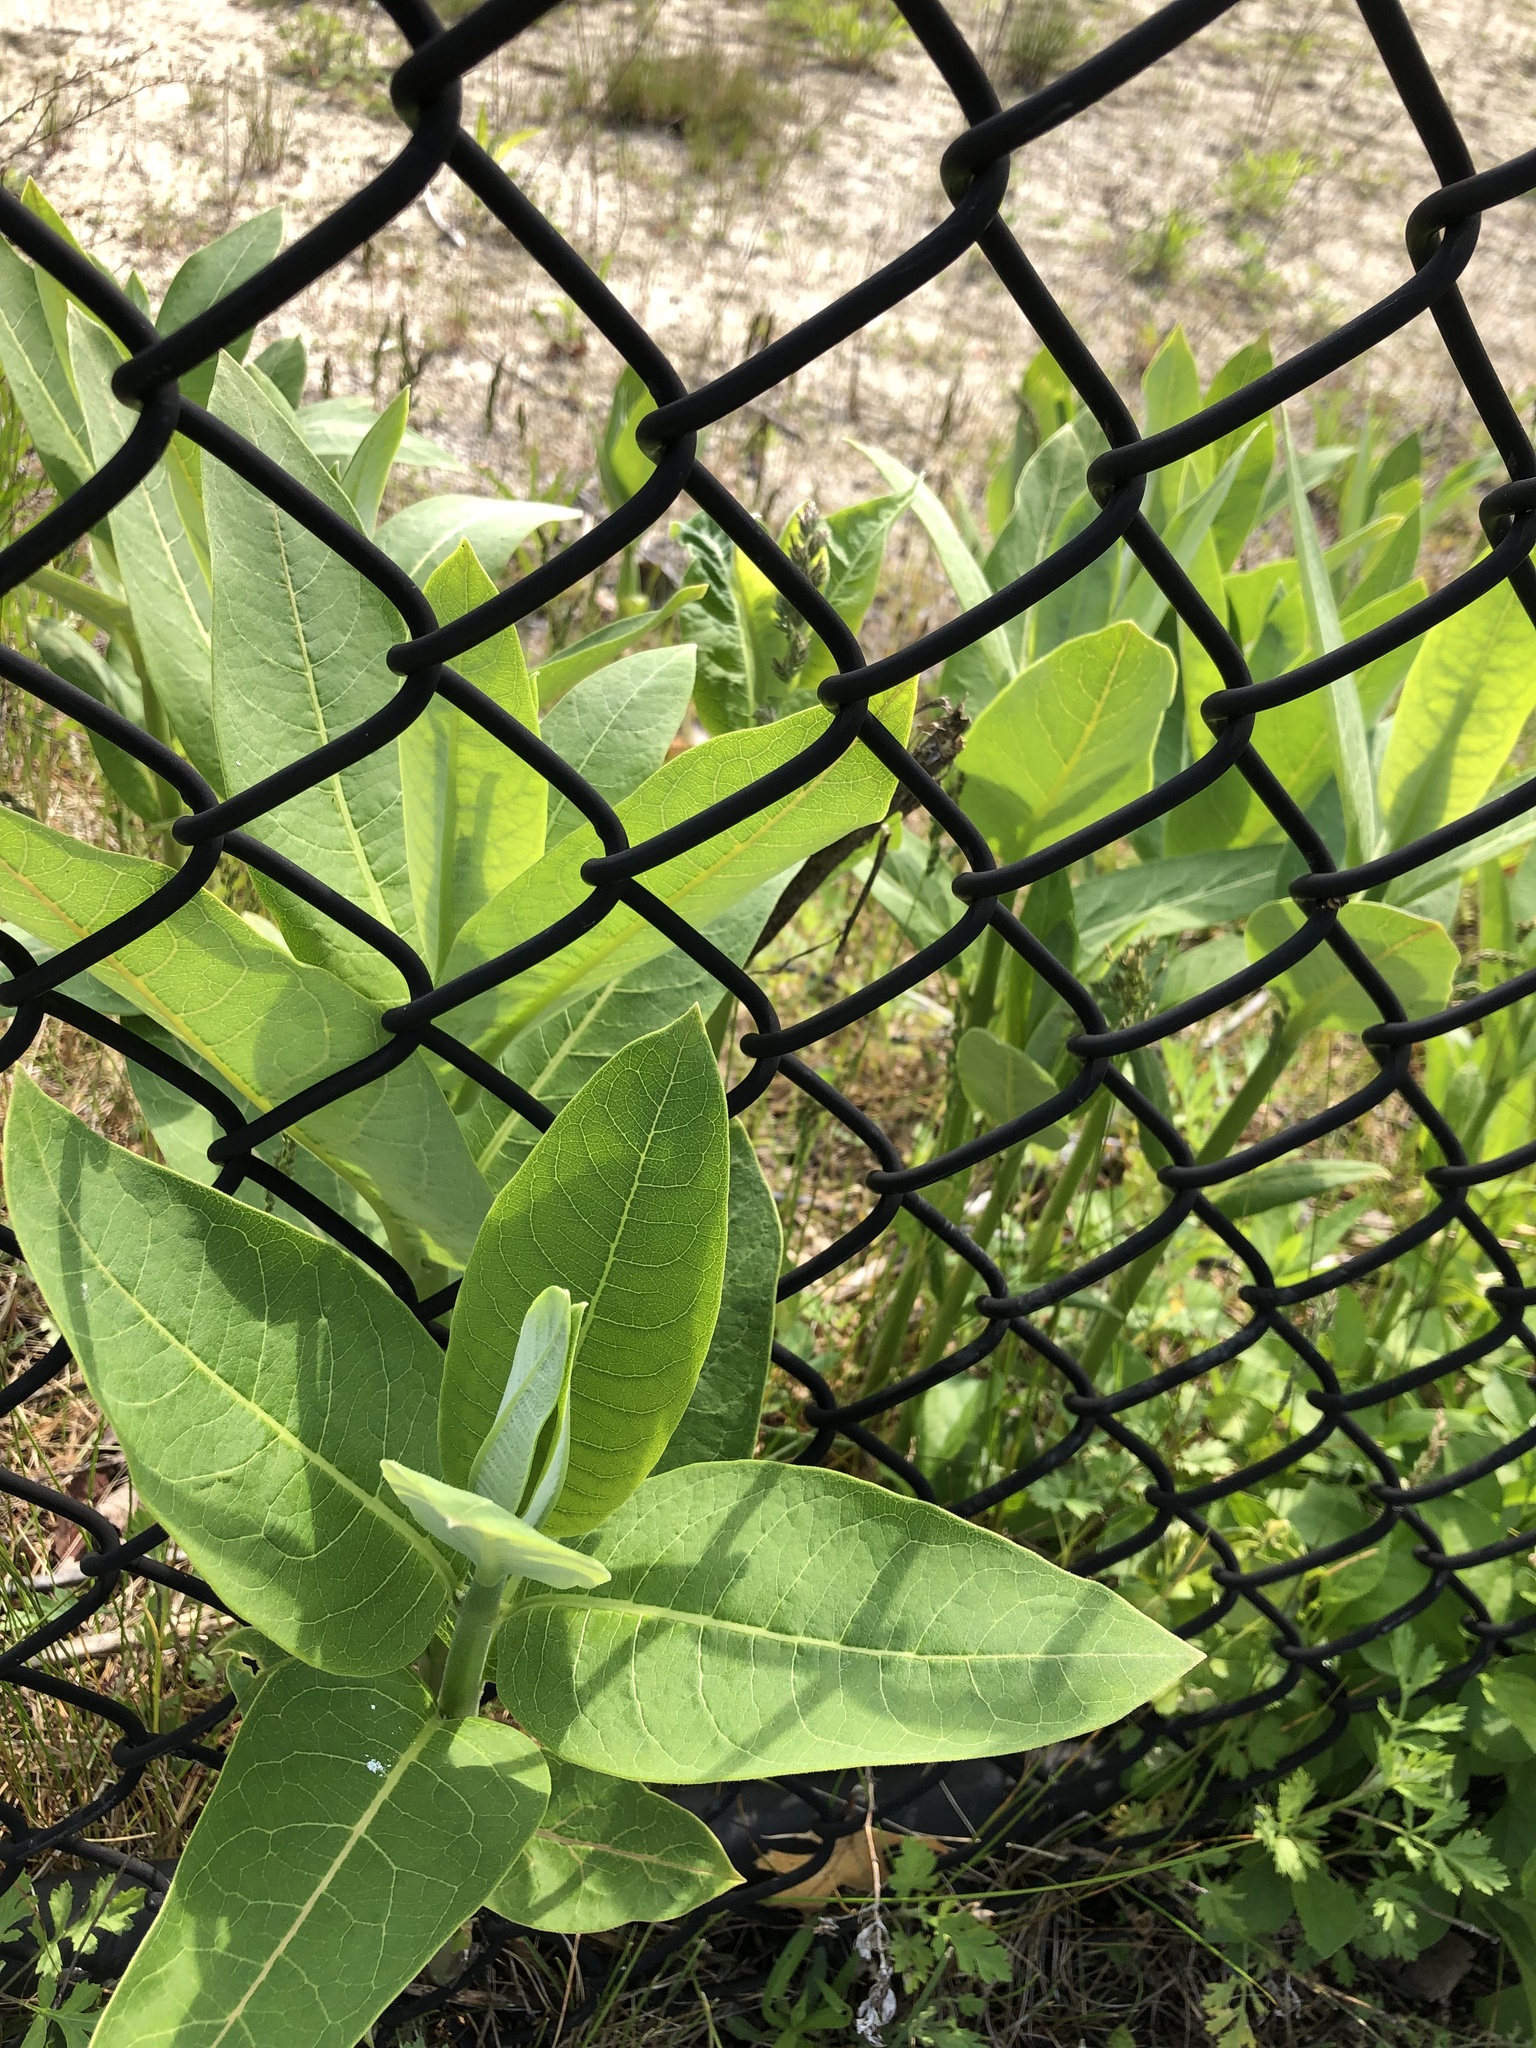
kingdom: Plantae
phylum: Tracheophyta
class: Magnoliopsida
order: Gentianales
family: Apocynaceae
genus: Asclepias
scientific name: Asclepias syriaca
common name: Common milkweed
